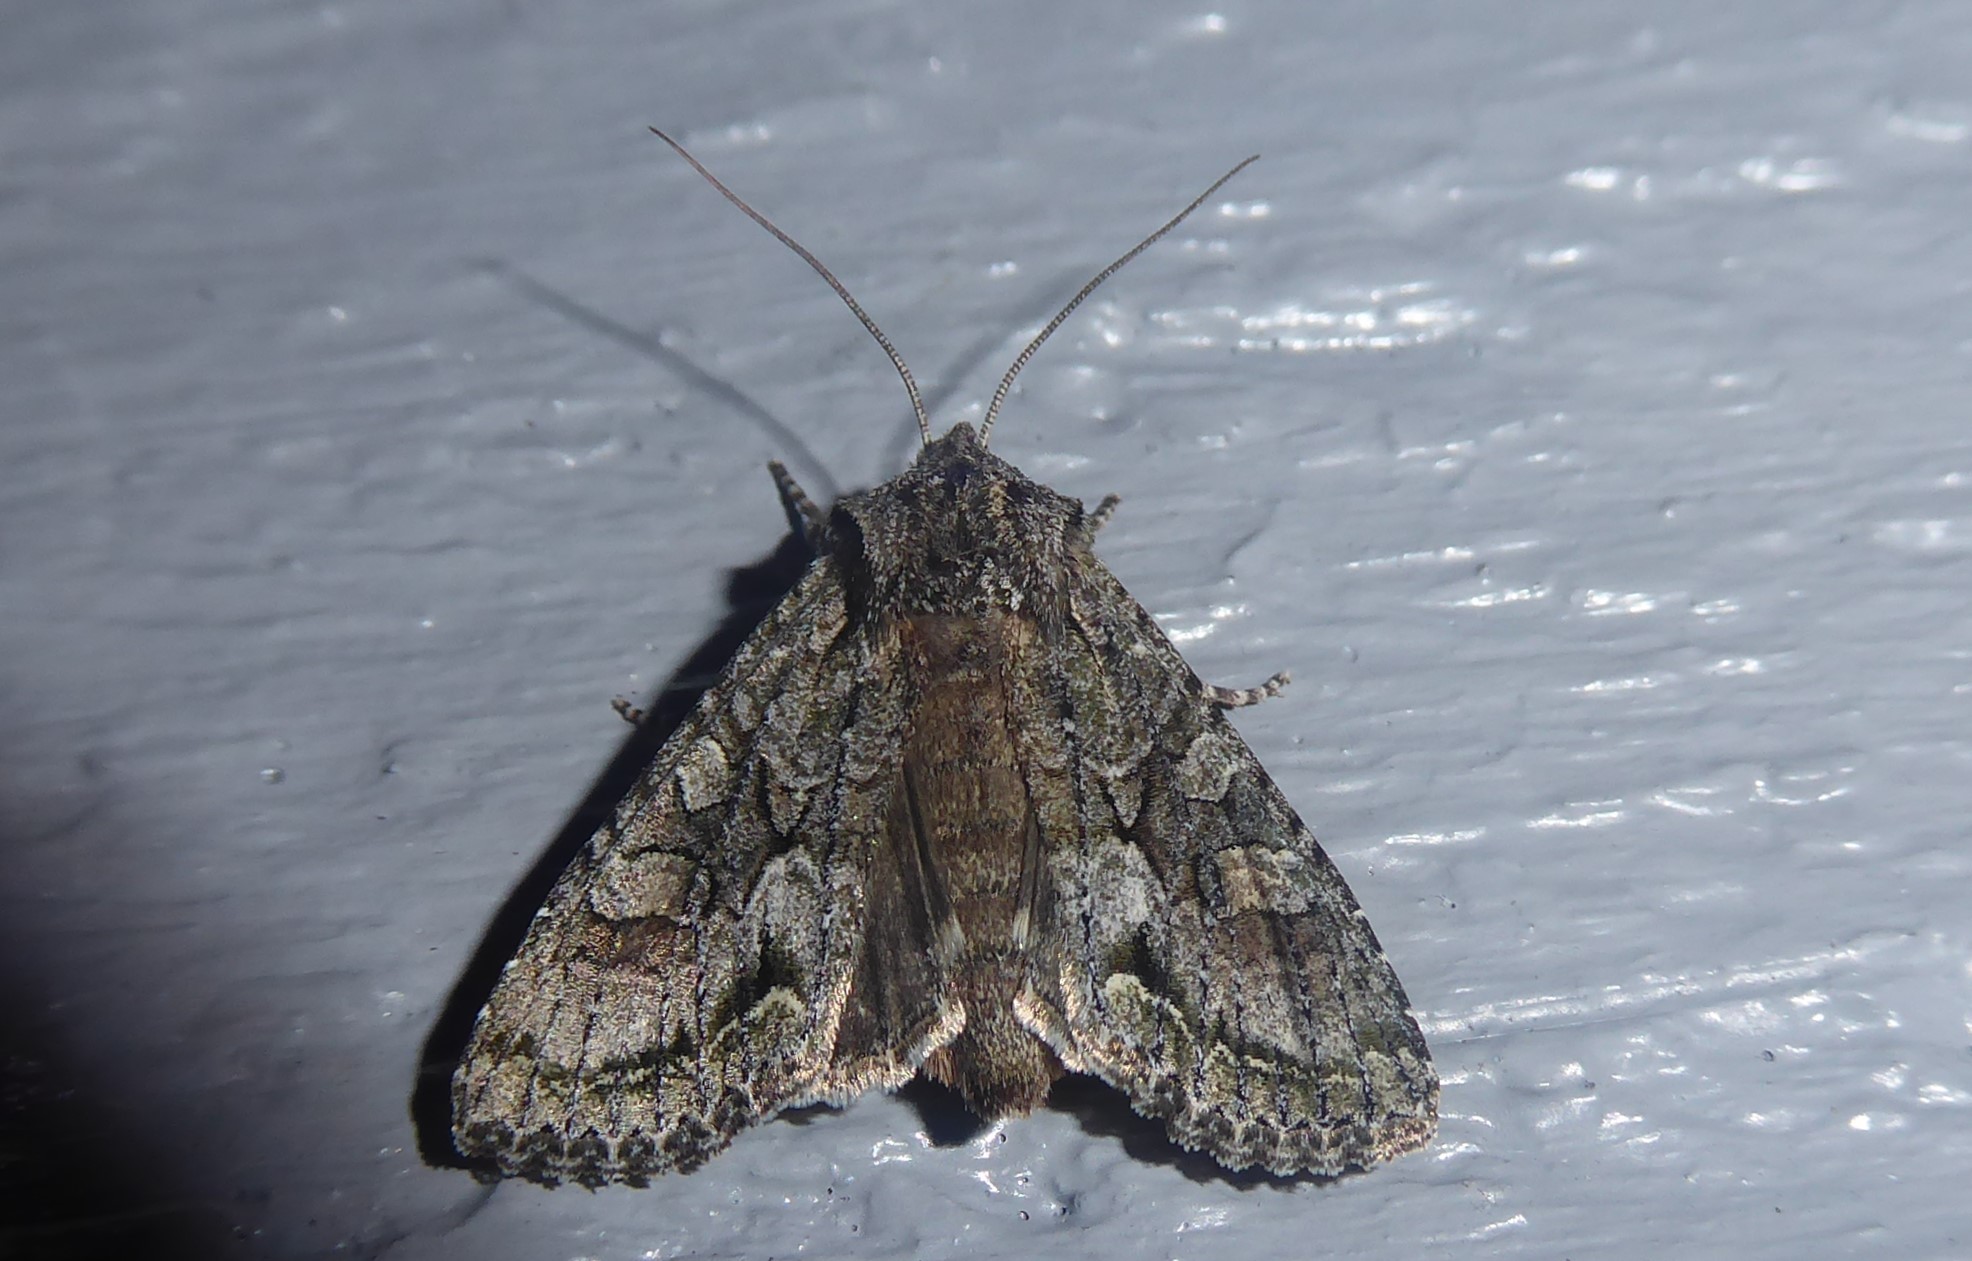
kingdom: Animalia
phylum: Arthropoda
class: Insecta
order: Lepidoptera
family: Noctuidae
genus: Ichneutica
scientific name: Ichneutica mutans
